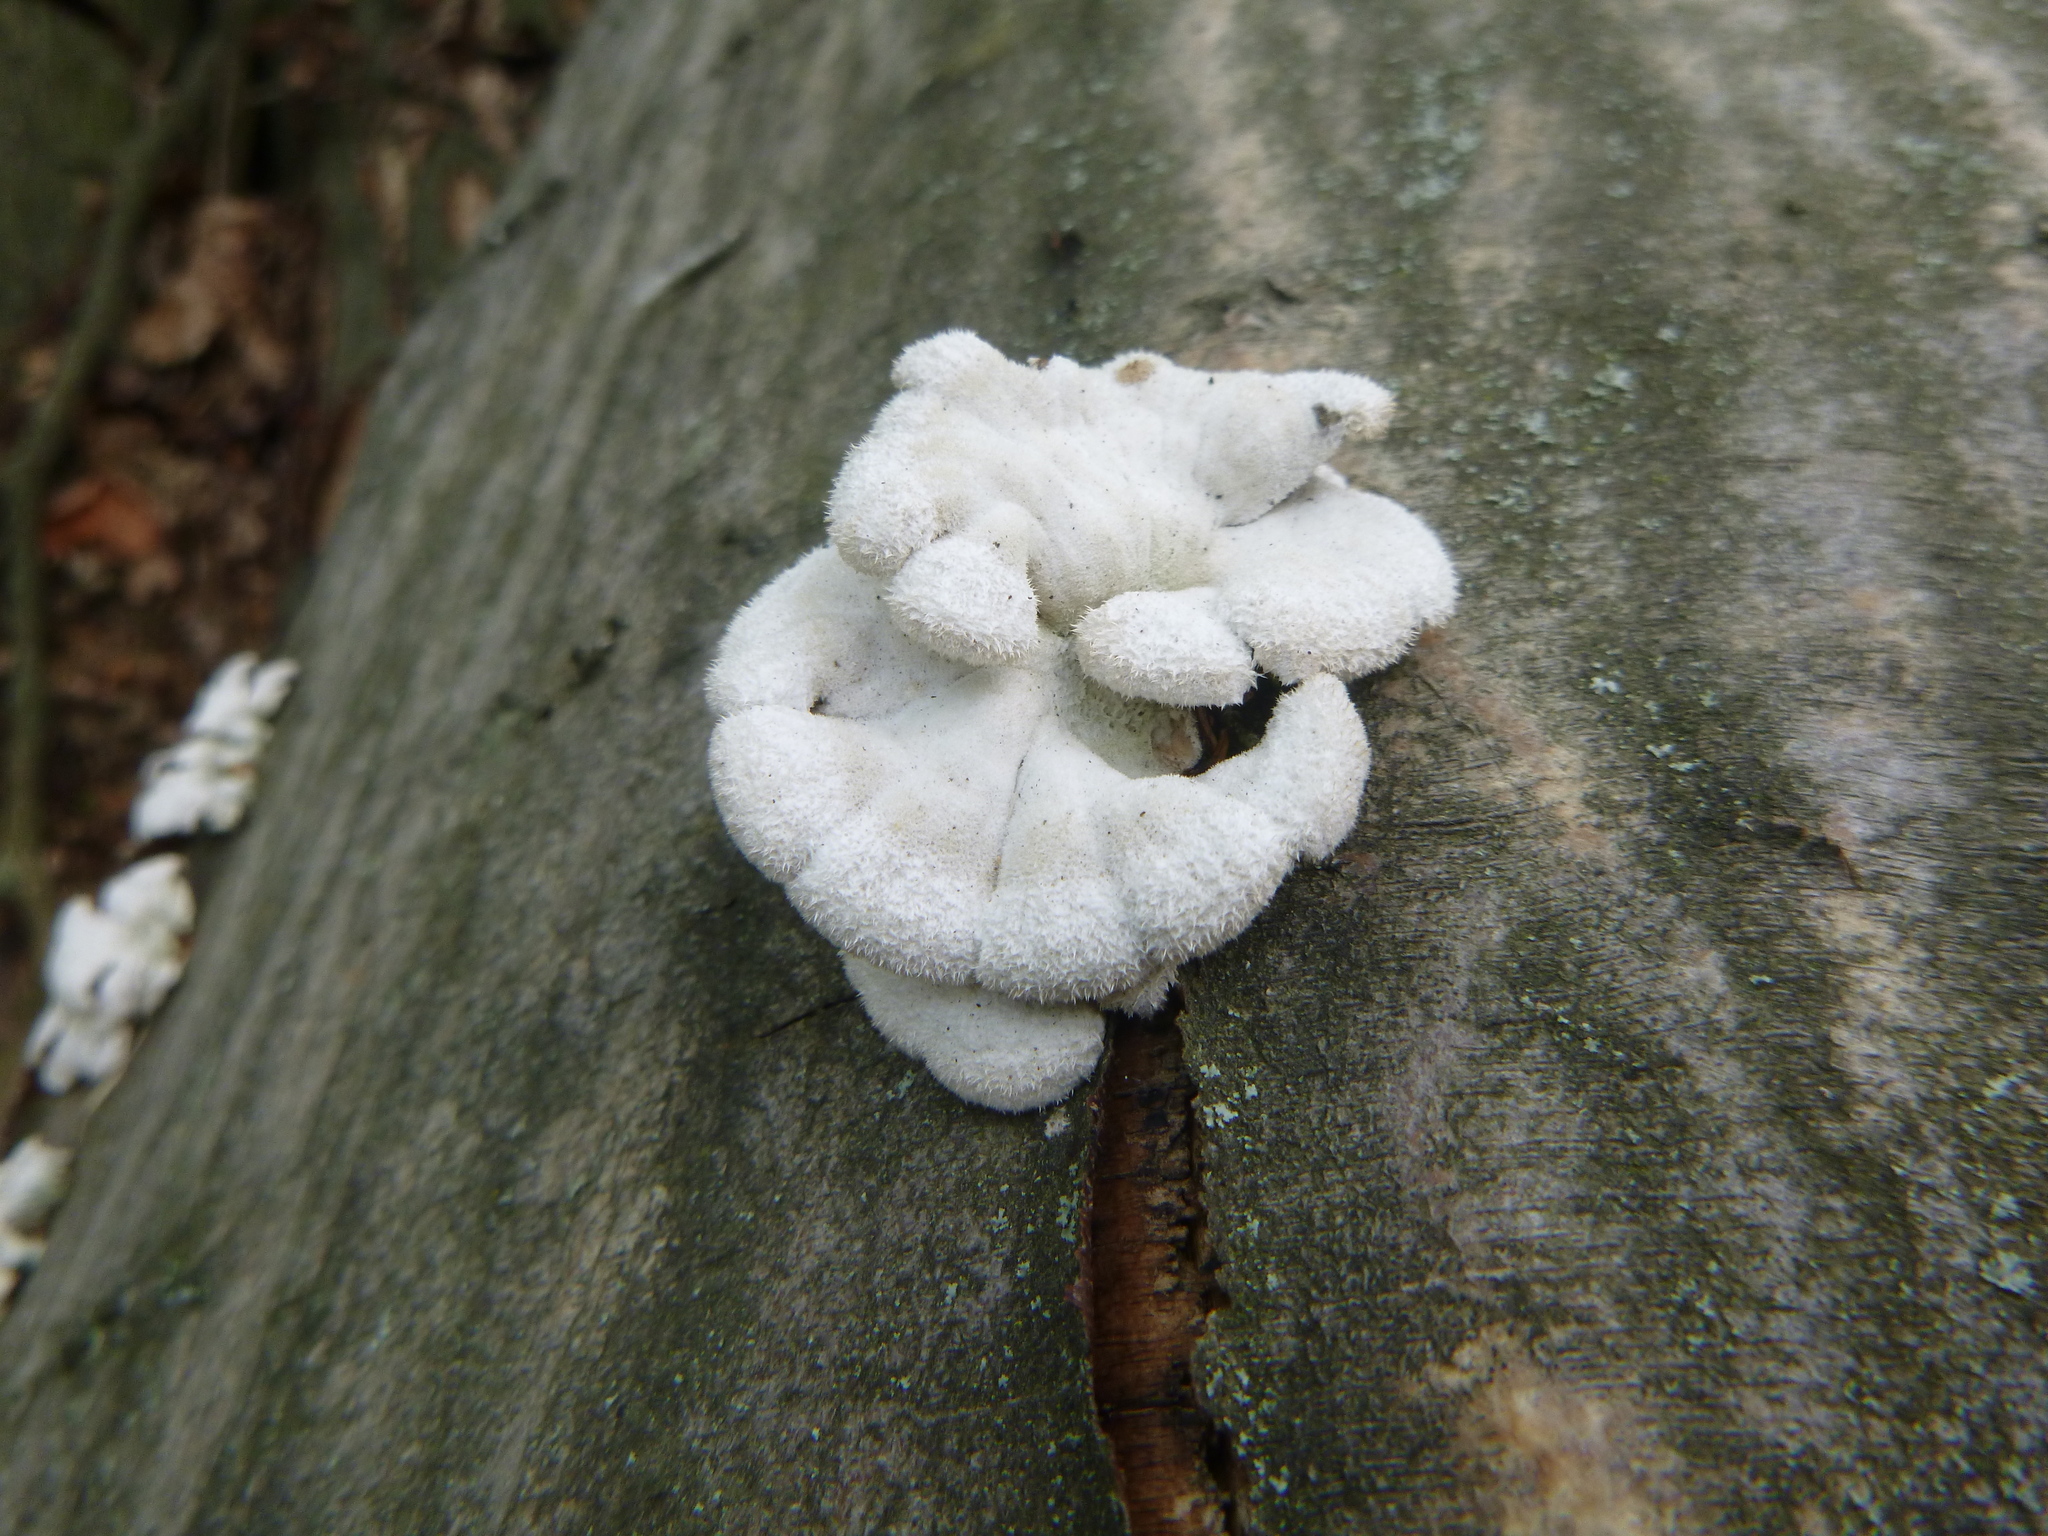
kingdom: Fungi
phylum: Basidiomycota
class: Agaricomycetes
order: Agaricales
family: Schizophyllaceae
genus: Schizophyllum
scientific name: Schizophyllum commune
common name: Common porecrust
